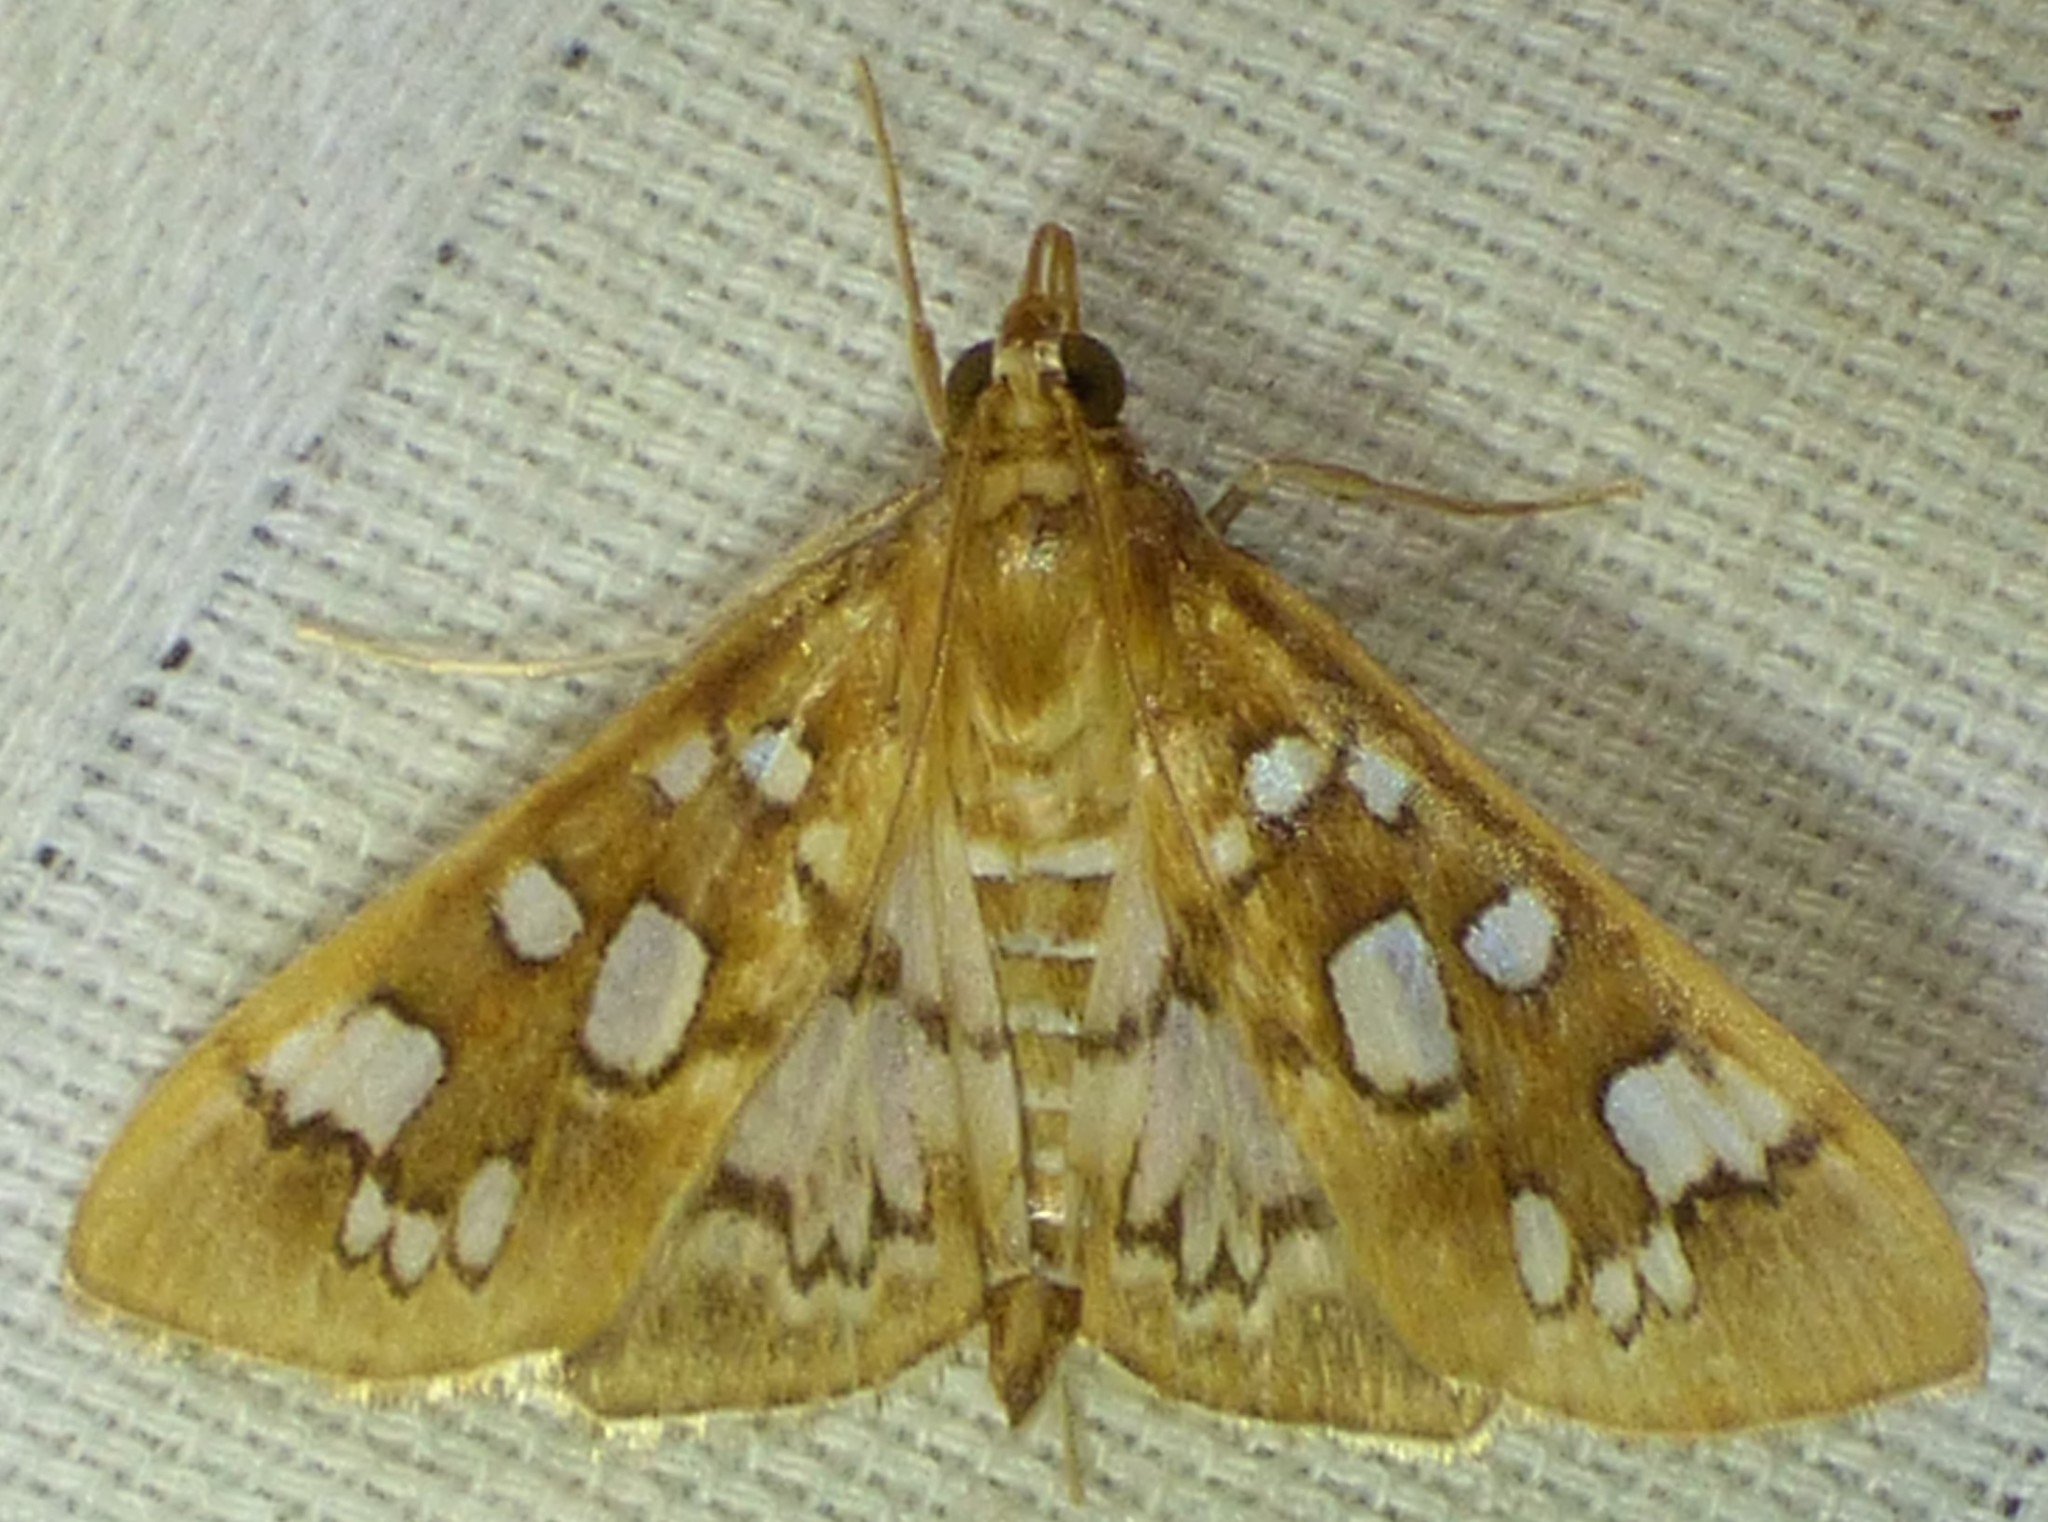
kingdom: Animalia
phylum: Arthropoda
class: Insecta
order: Lepidoptera
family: Crambidae
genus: Samea
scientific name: Samea baccatalis
